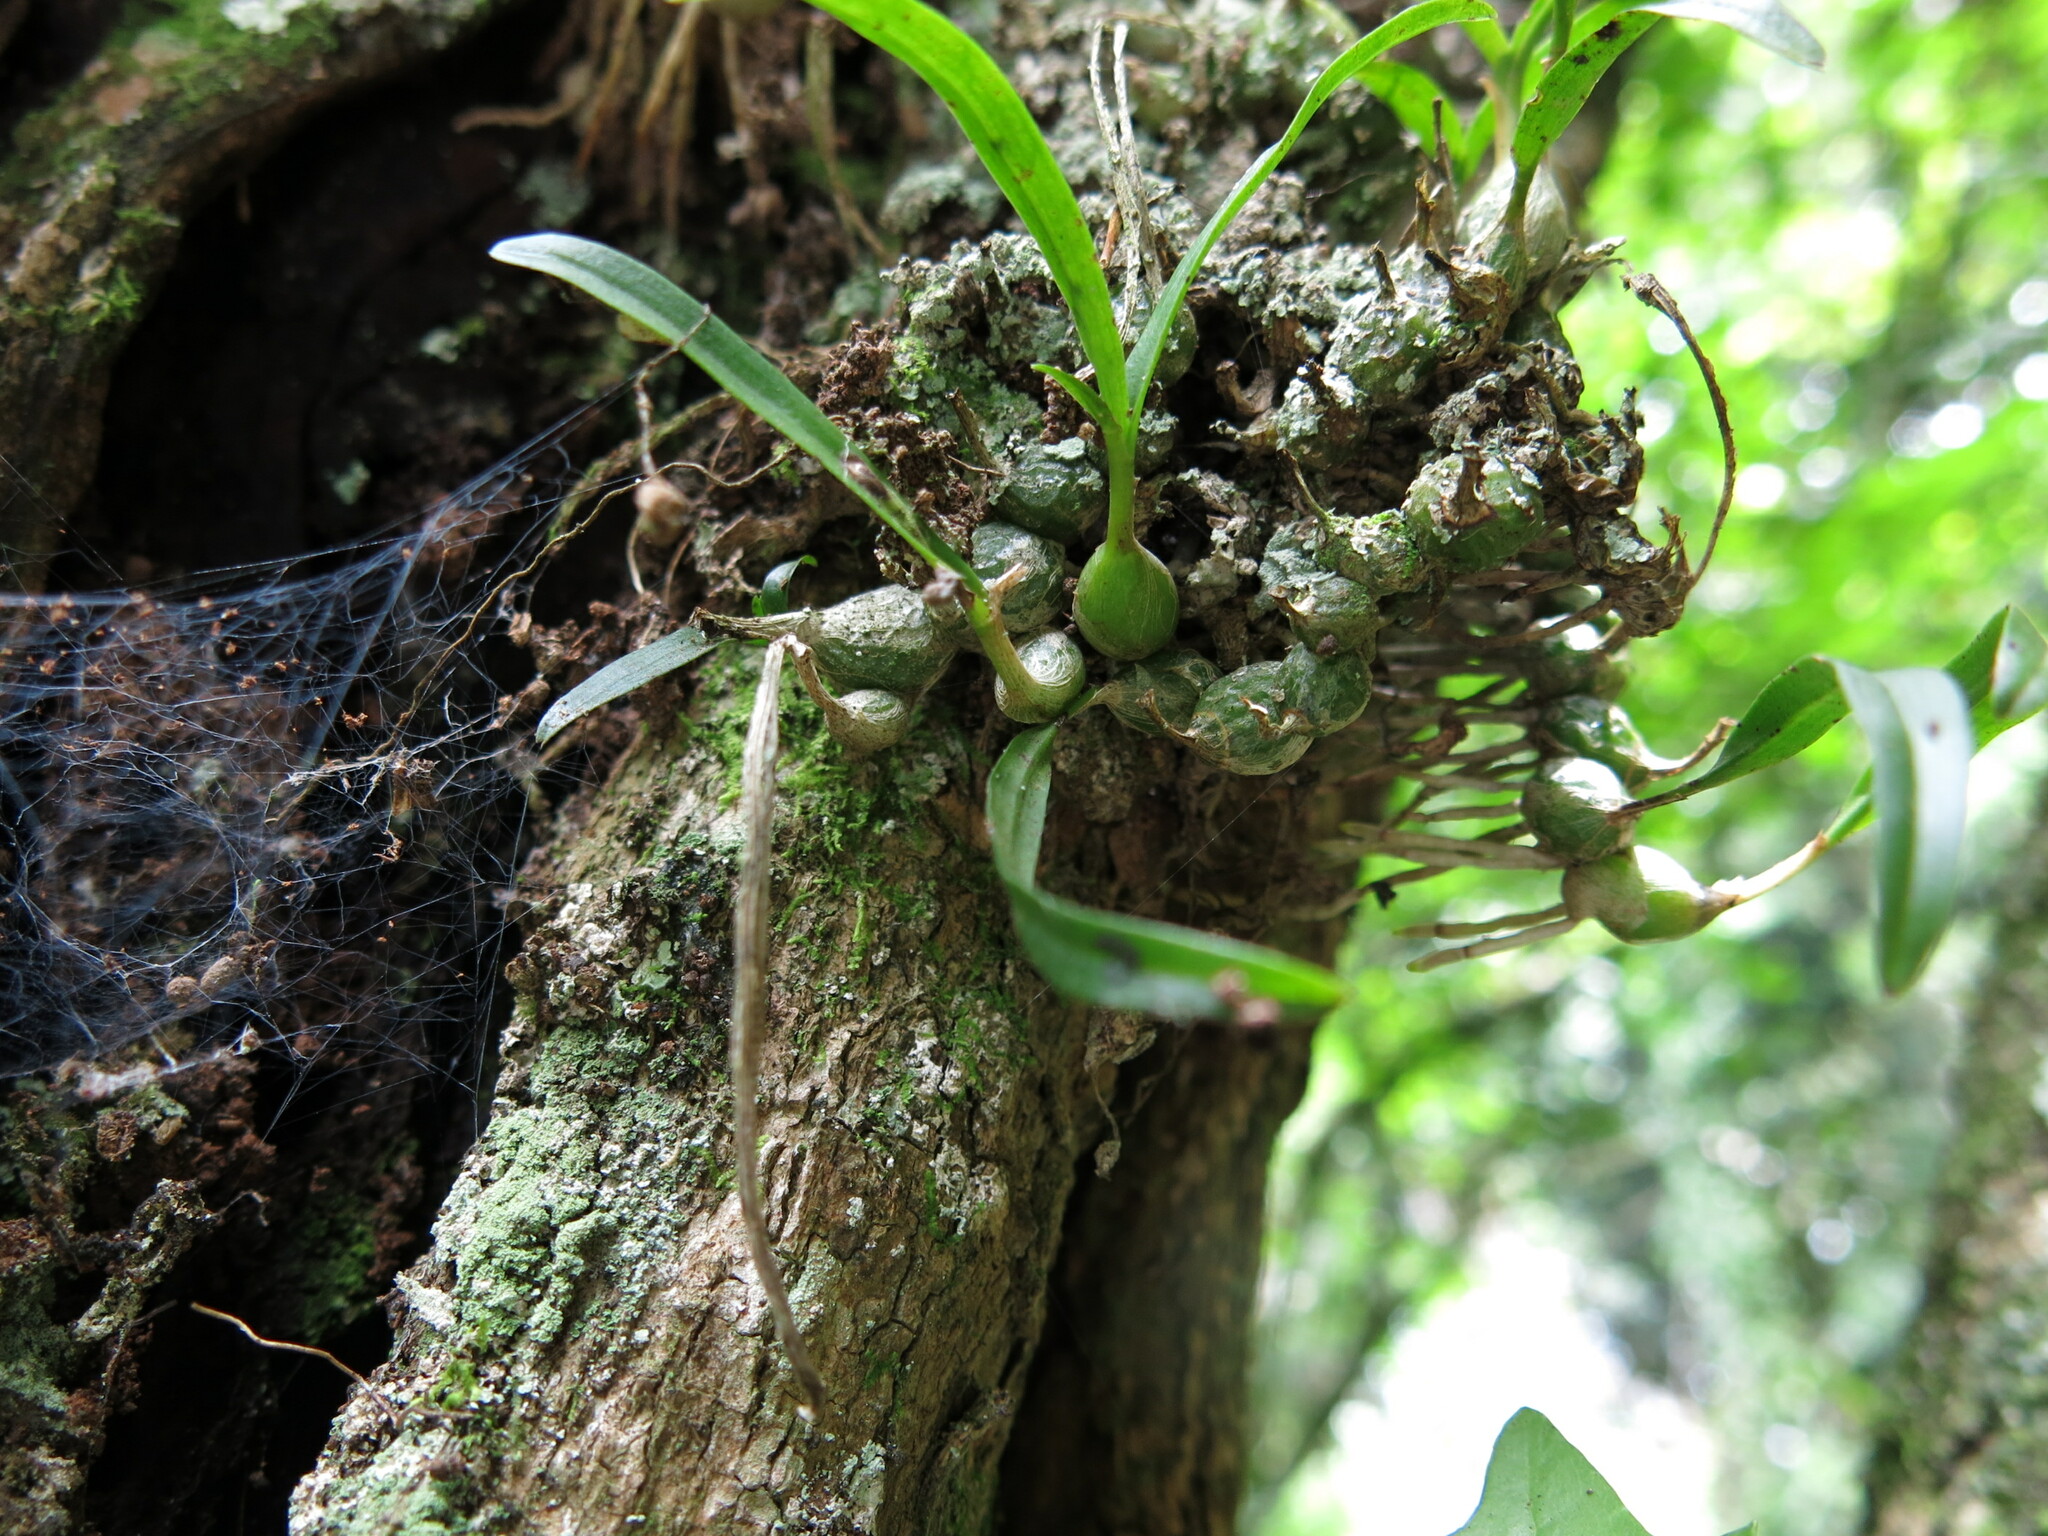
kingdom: Plantae
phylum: Tracheophyta
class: Liliopsida
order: Asparagales
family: Orchidaceae
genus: Polystachya
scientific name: Polystachya ottoniana
